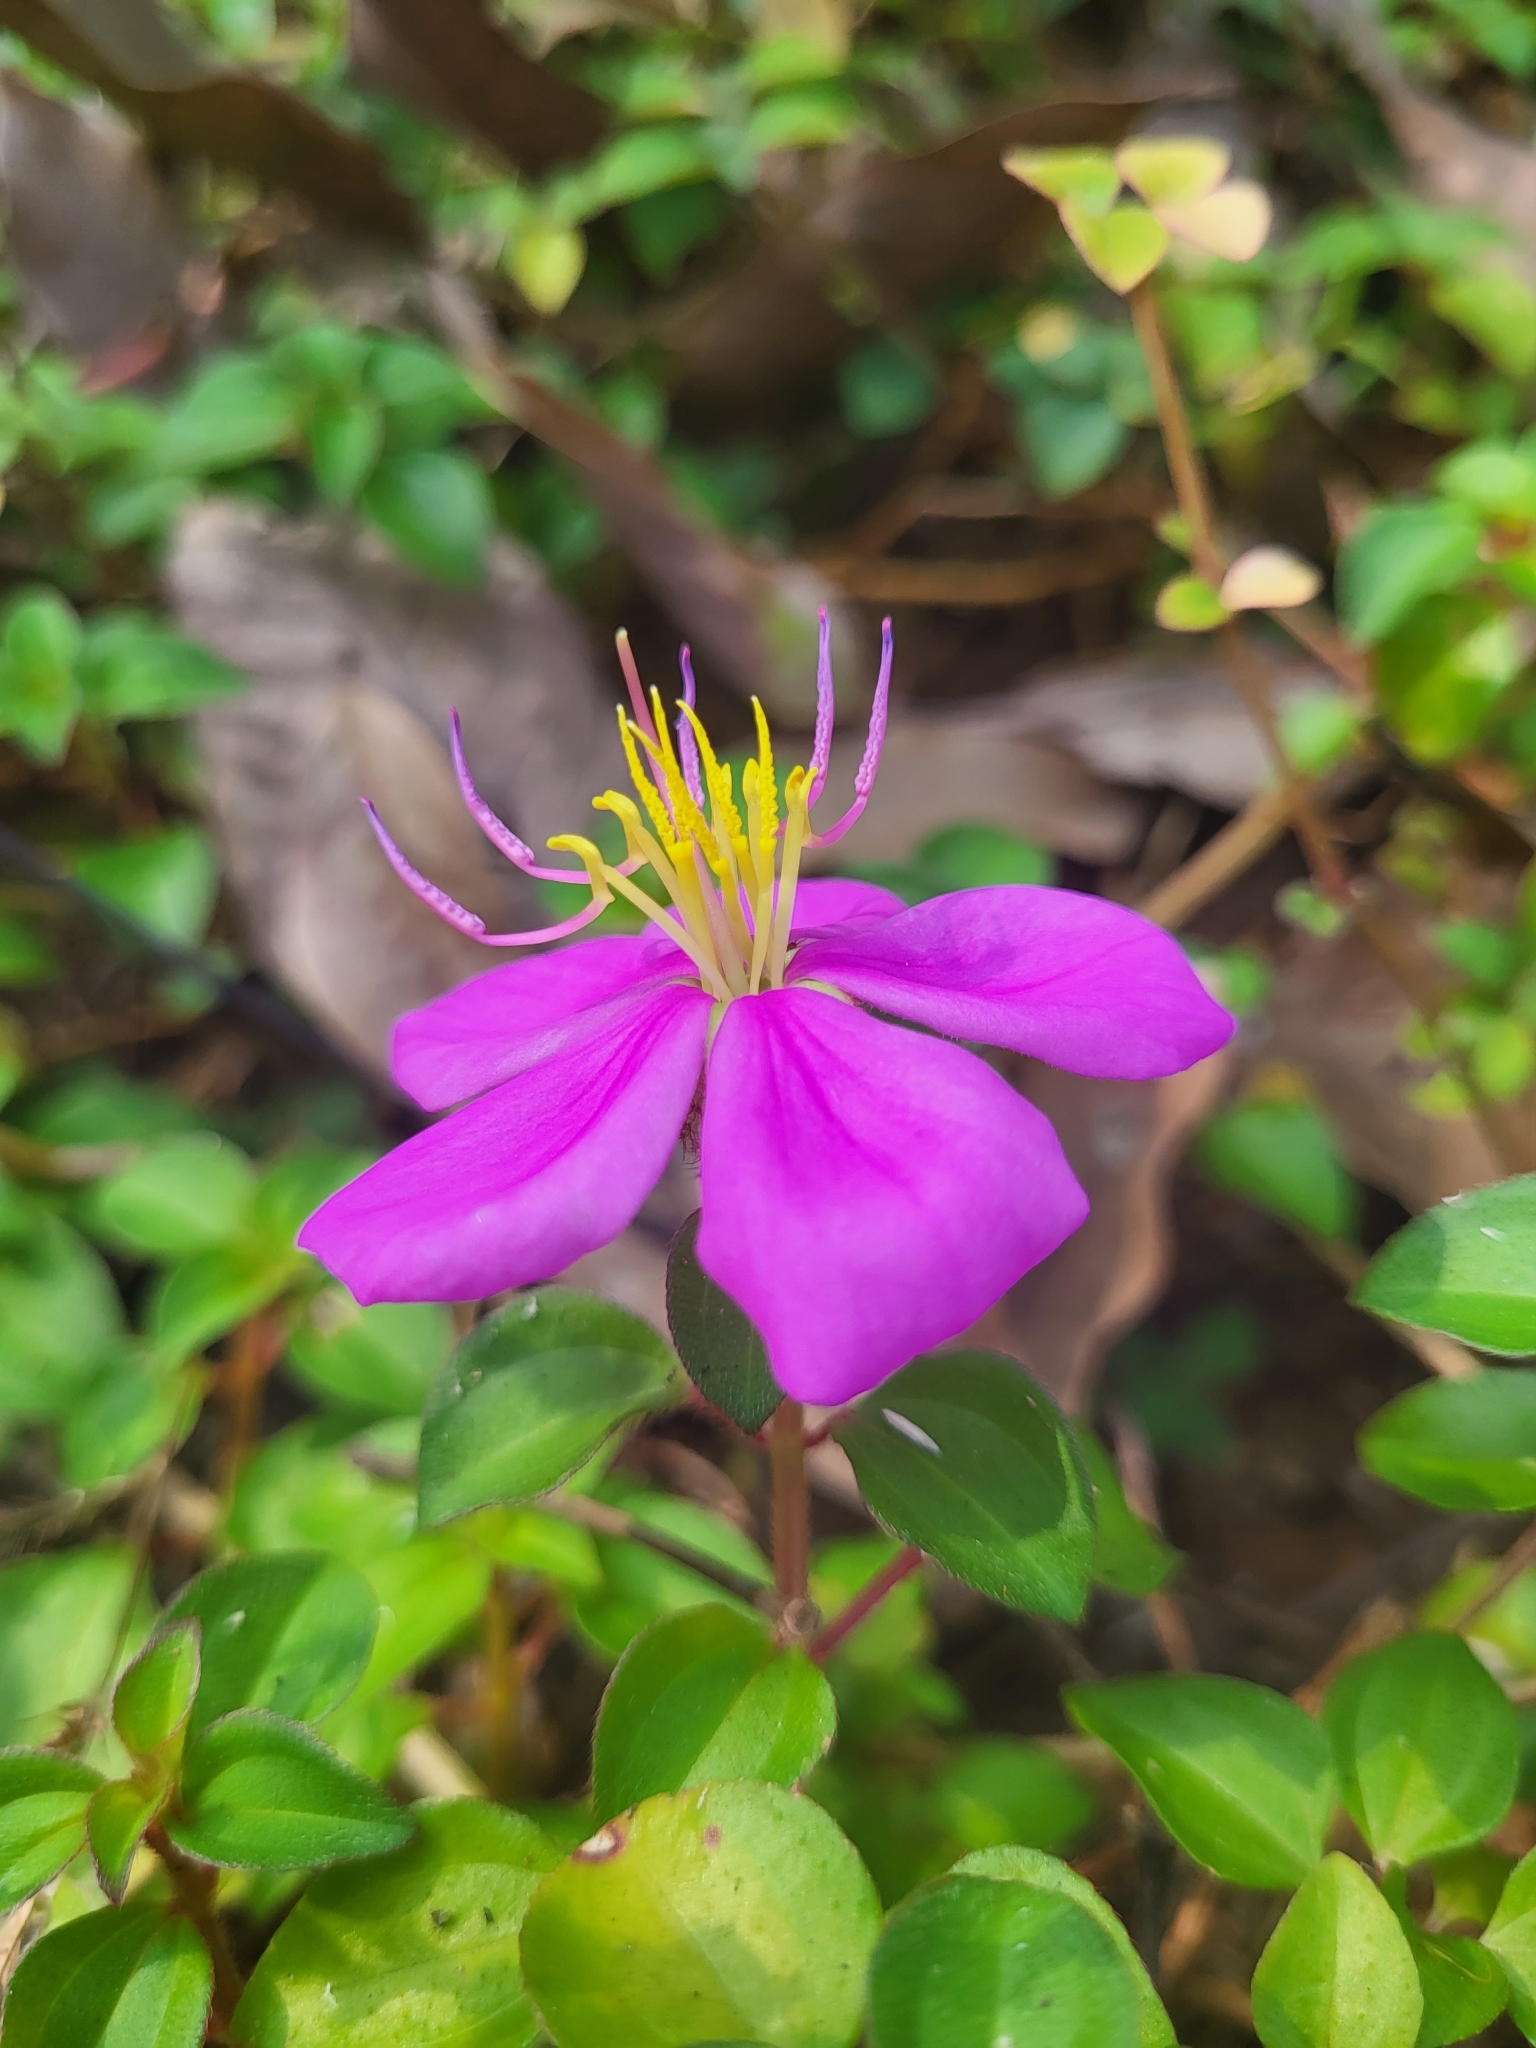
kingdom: Plantae
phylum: Tracheophyta
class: Magnoliopsida
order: Myrtales
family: Melastomataceae
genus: Heterotis
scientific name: Heterotis rotundifolia
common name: Pinklady
